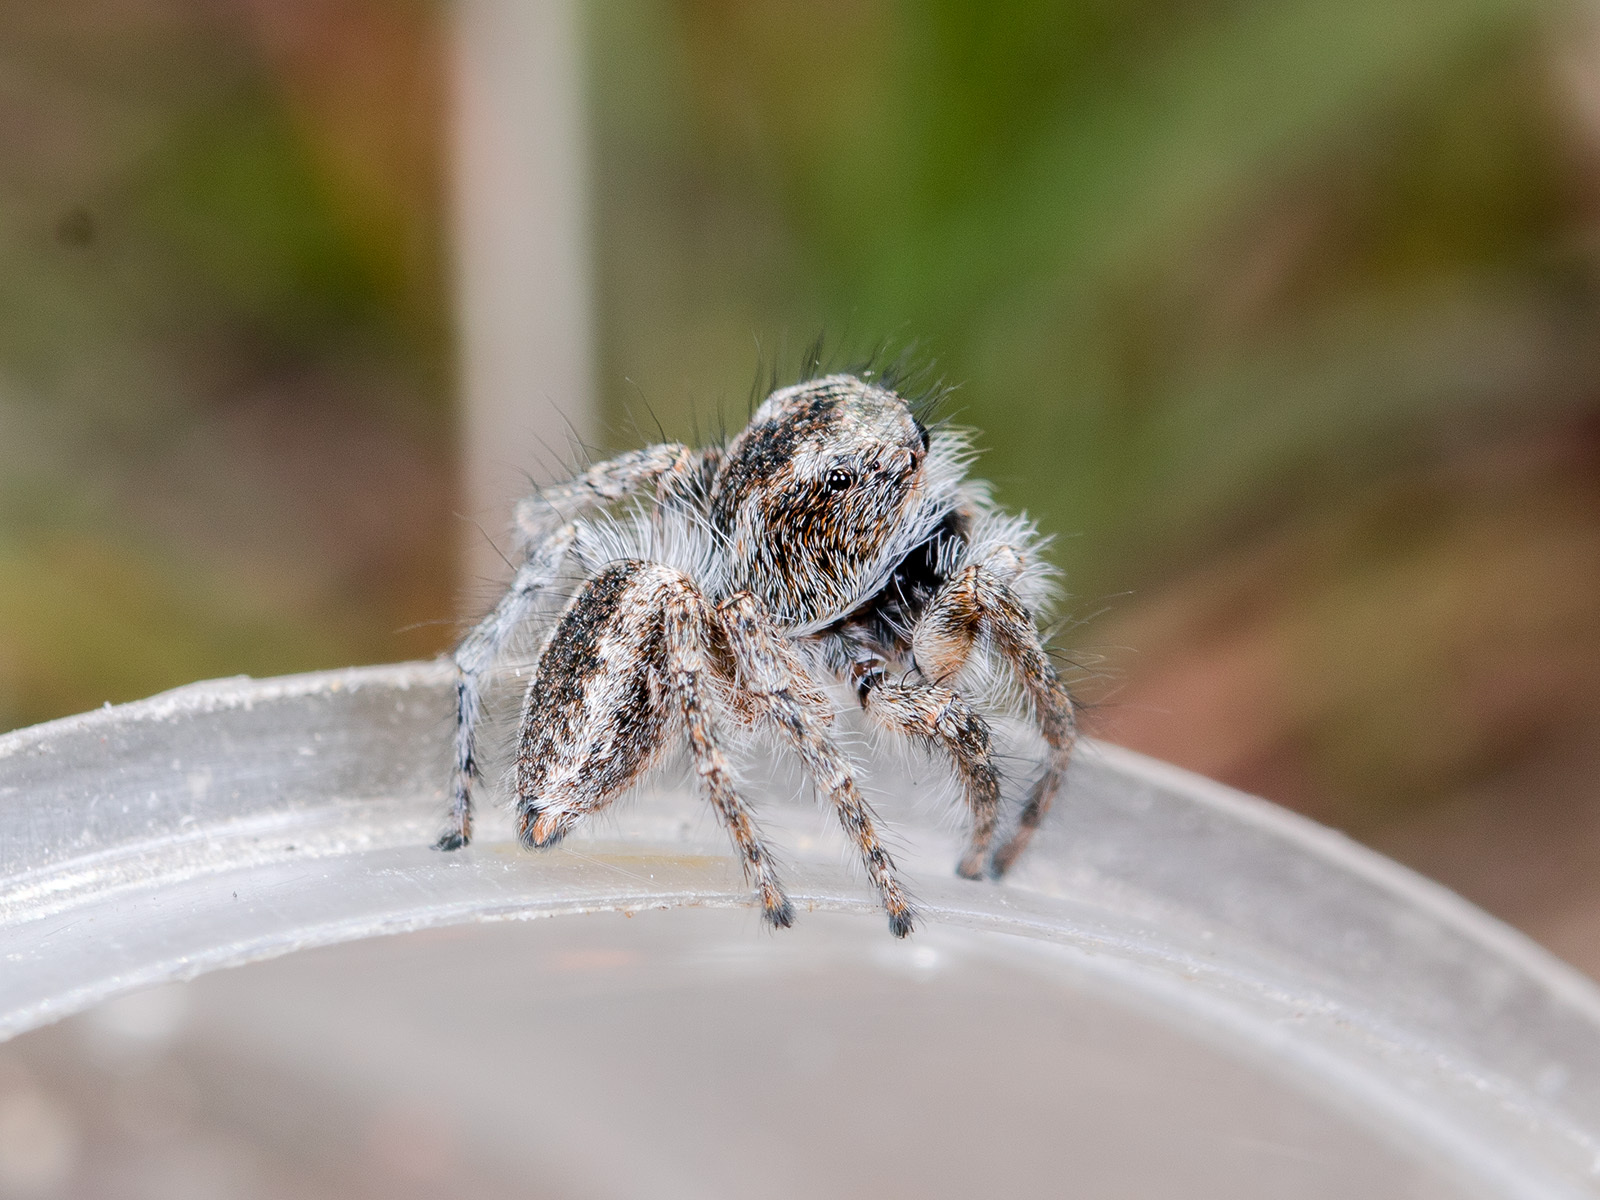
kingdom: Animalia
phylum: Arthropoda
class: Arachnida
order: Araneae
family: Salticidae
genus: Mogrus
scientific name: Mogrus larisae
